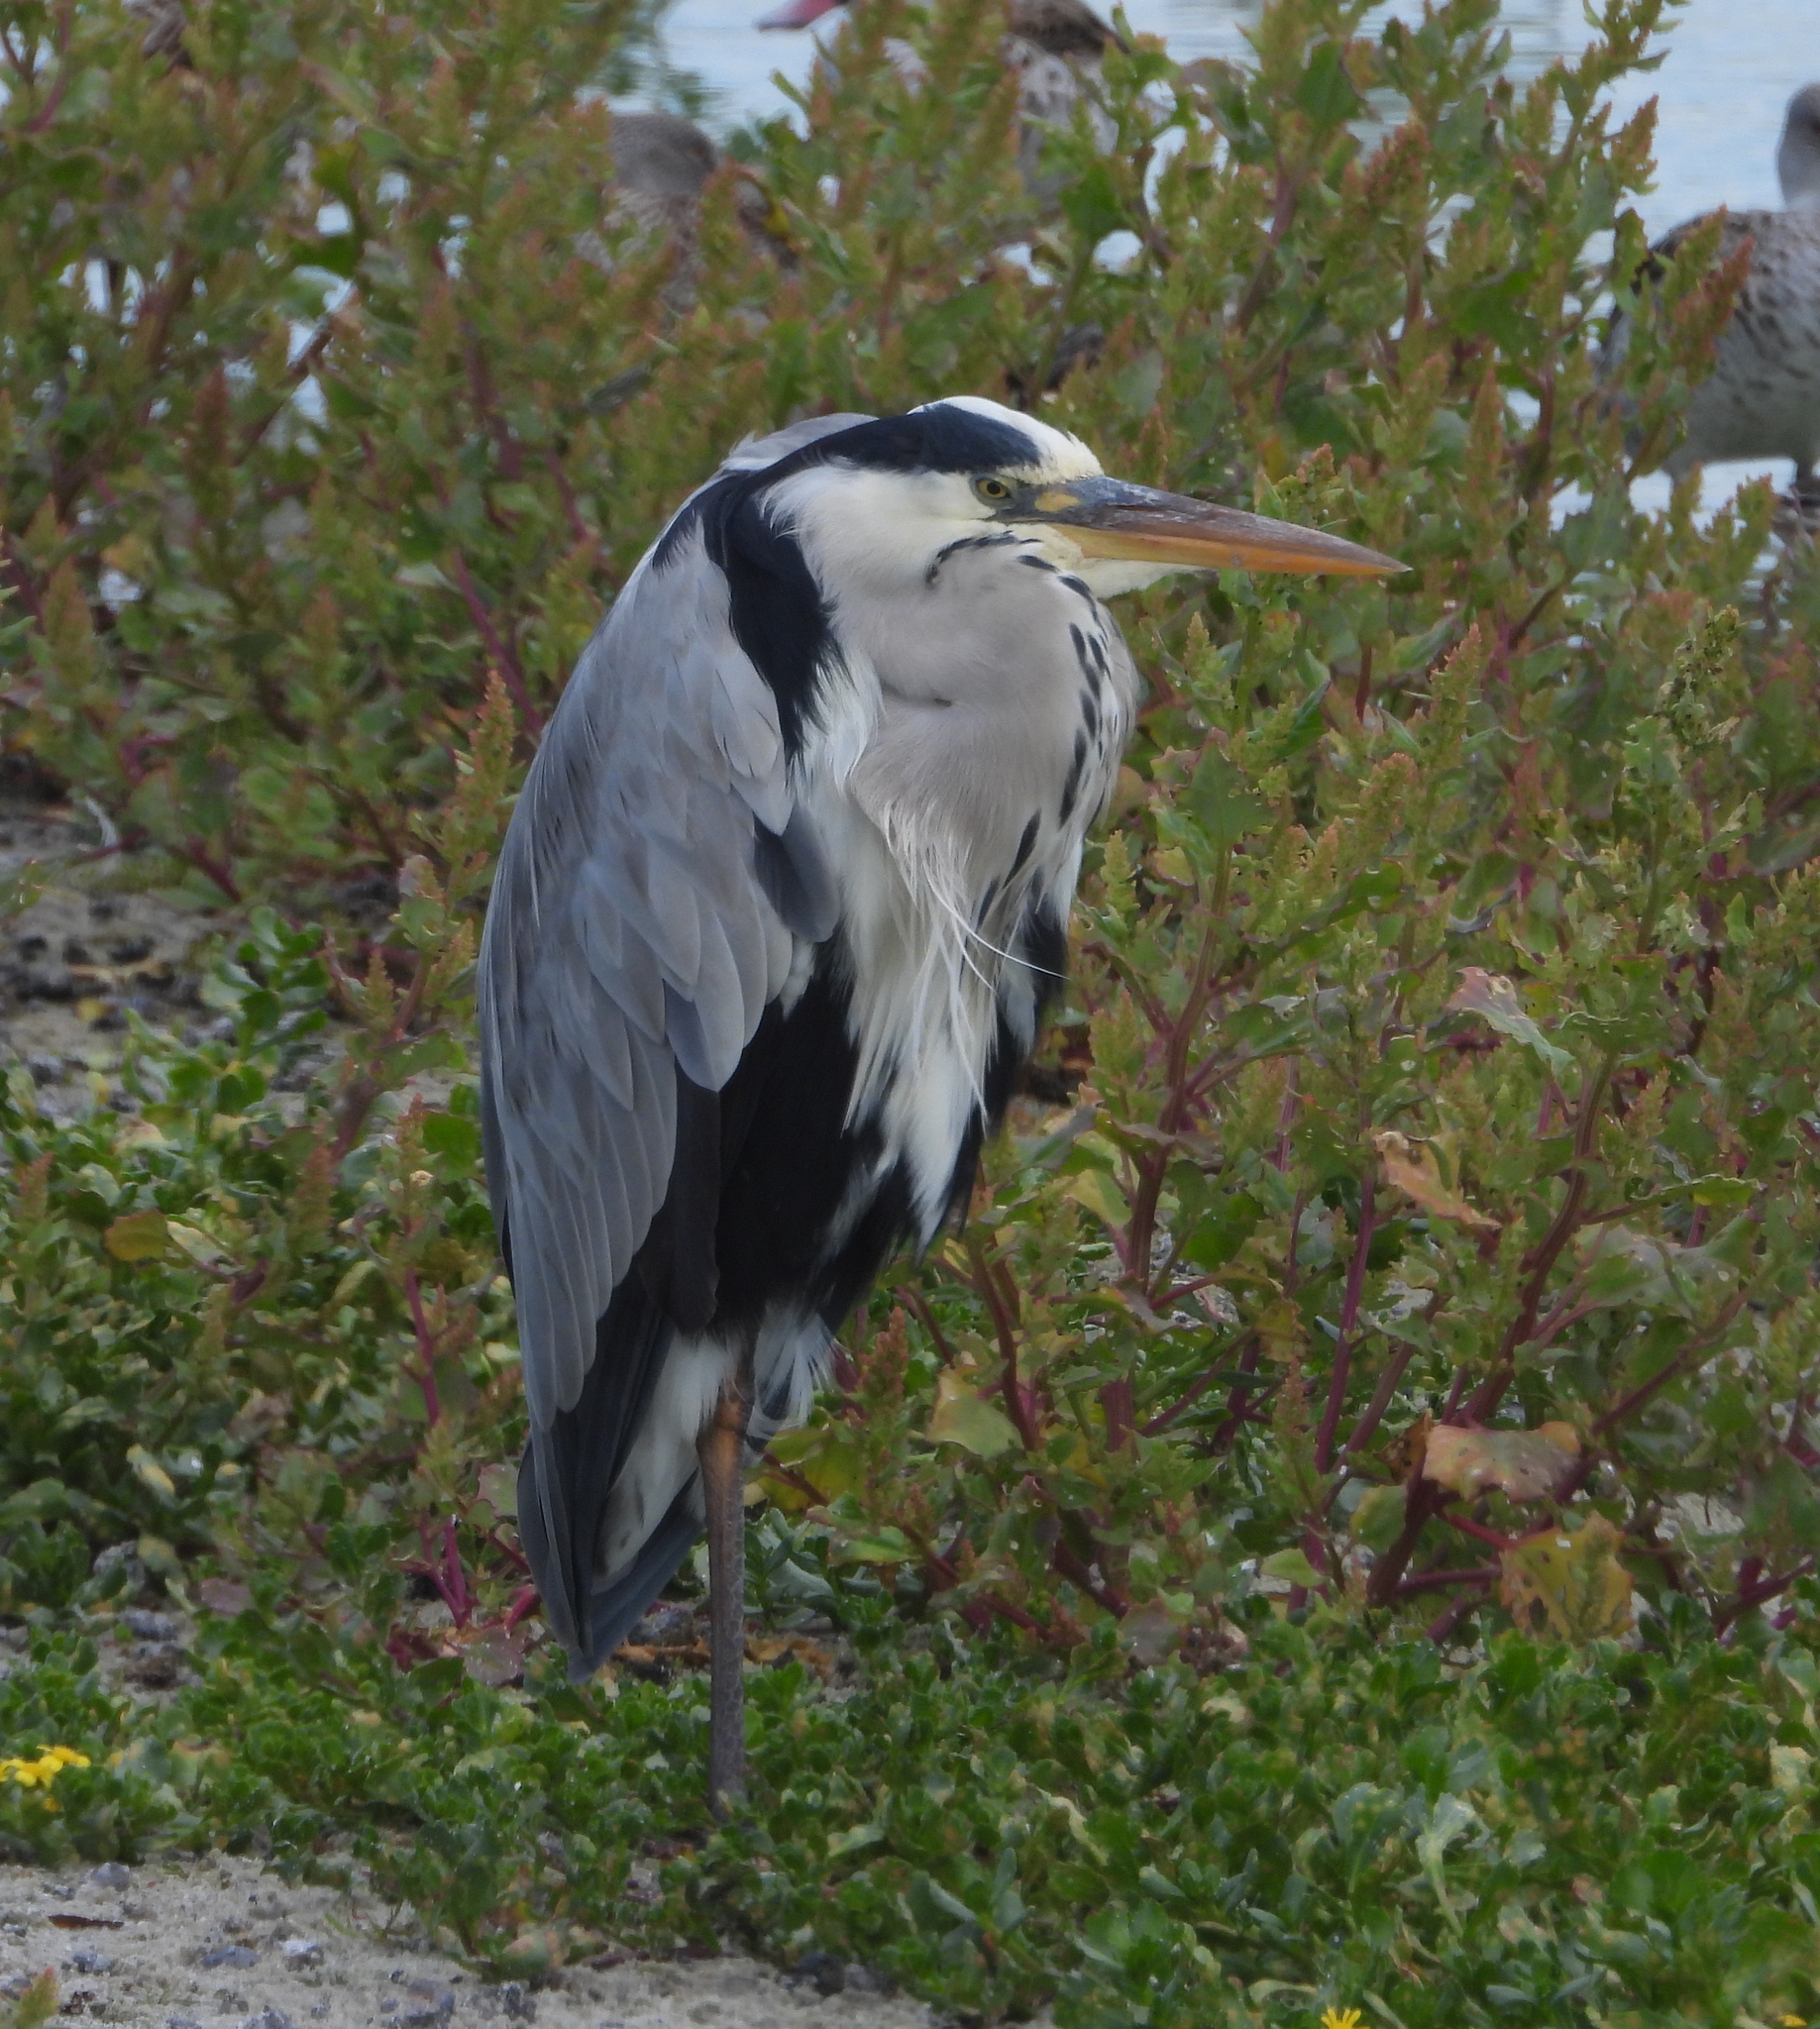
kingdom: Animalia
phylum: Chordata
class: Aves
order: Pelecaniformes
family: Ardeidae
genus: Ardea
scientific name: Ardea cinerea
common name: Grey heron
